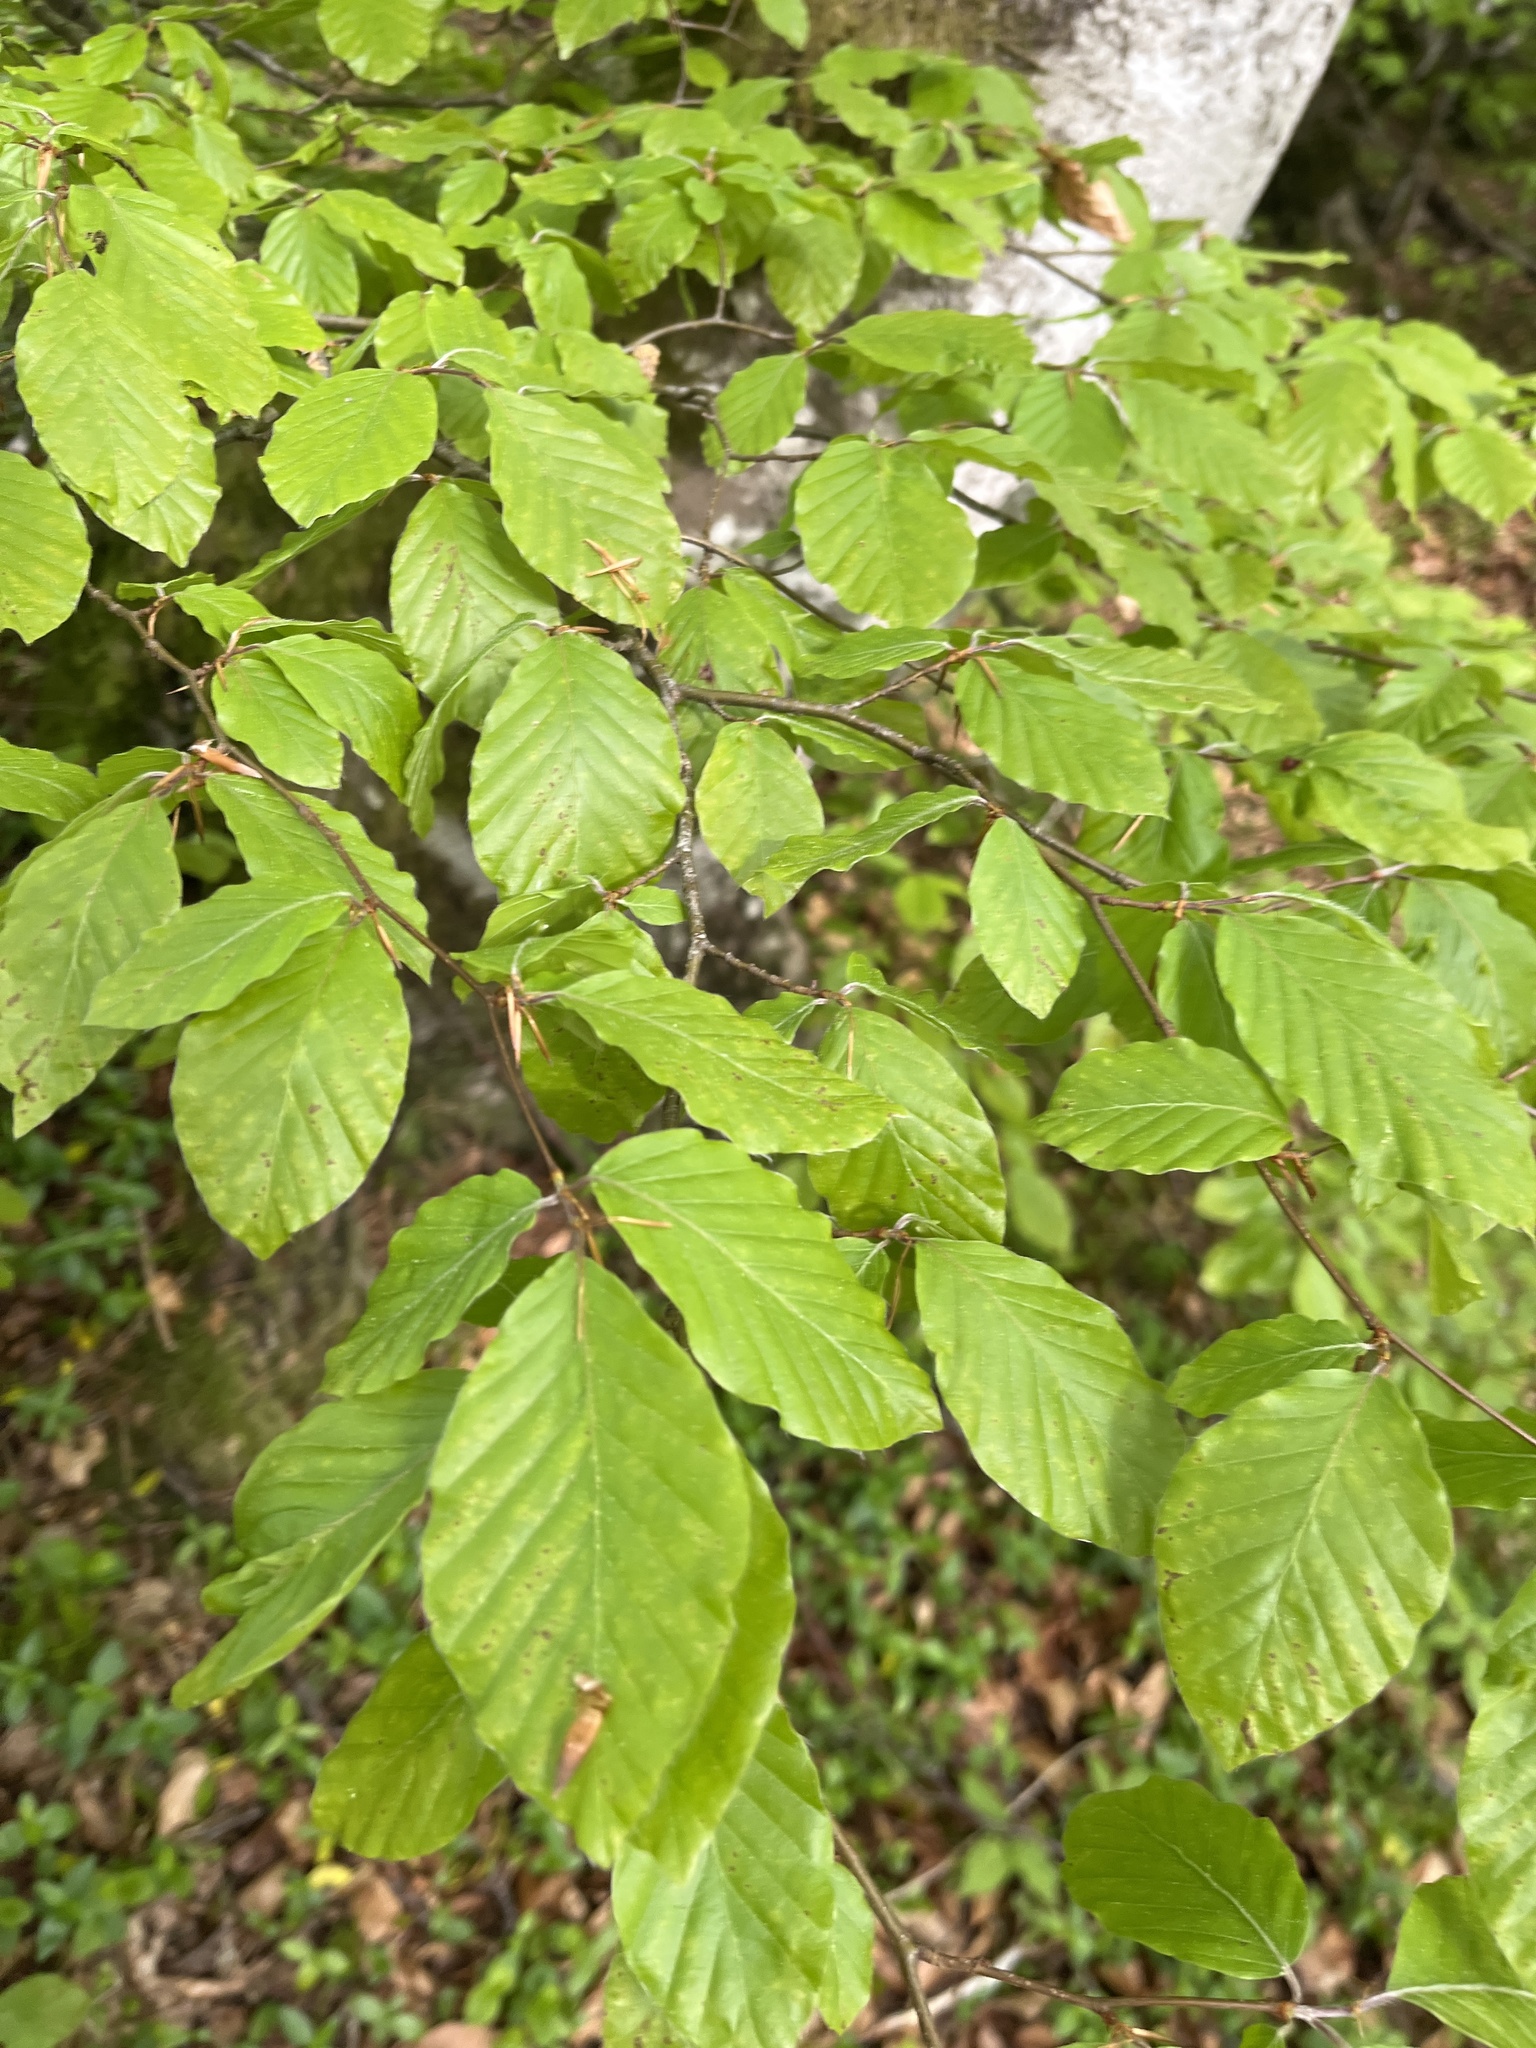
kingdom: Plantae
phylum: Tracheophyta
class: Magnoliopsida
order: Fagales
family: Fagaceae
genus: Fagus
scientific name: Fagus sylvatica
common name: Beech
